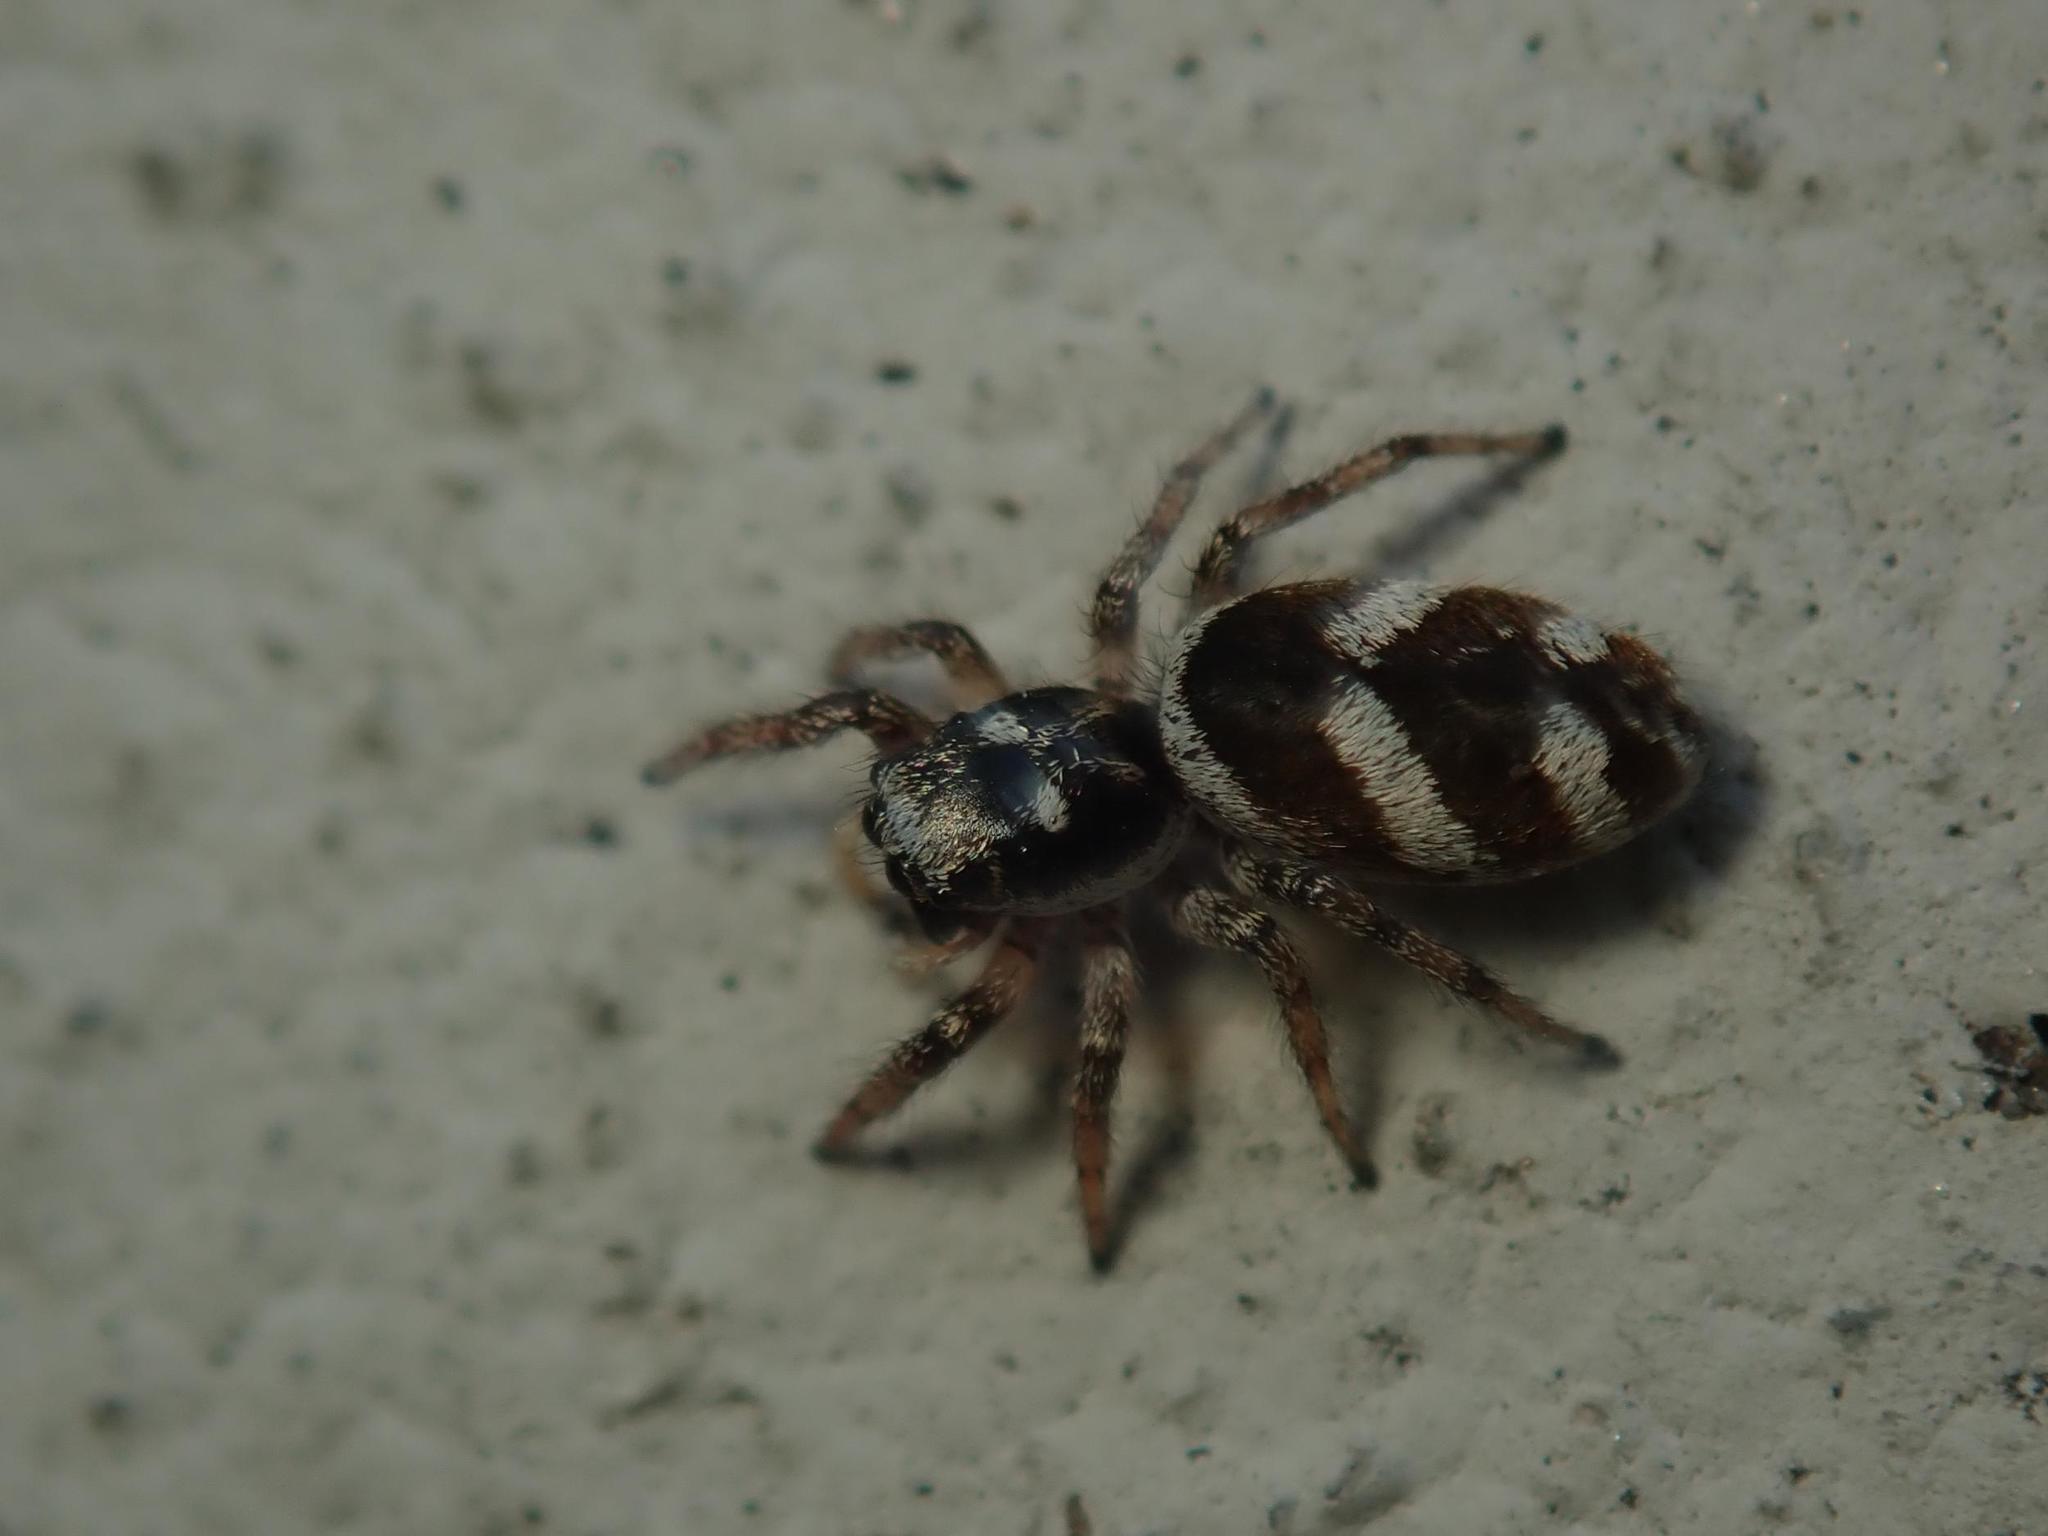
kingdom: Animalia
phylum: Arthropoda
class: Arachnida
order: Araneae
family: Salticidae
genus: Salticus
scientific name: Salticus scenicus
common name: Zebra jumper
